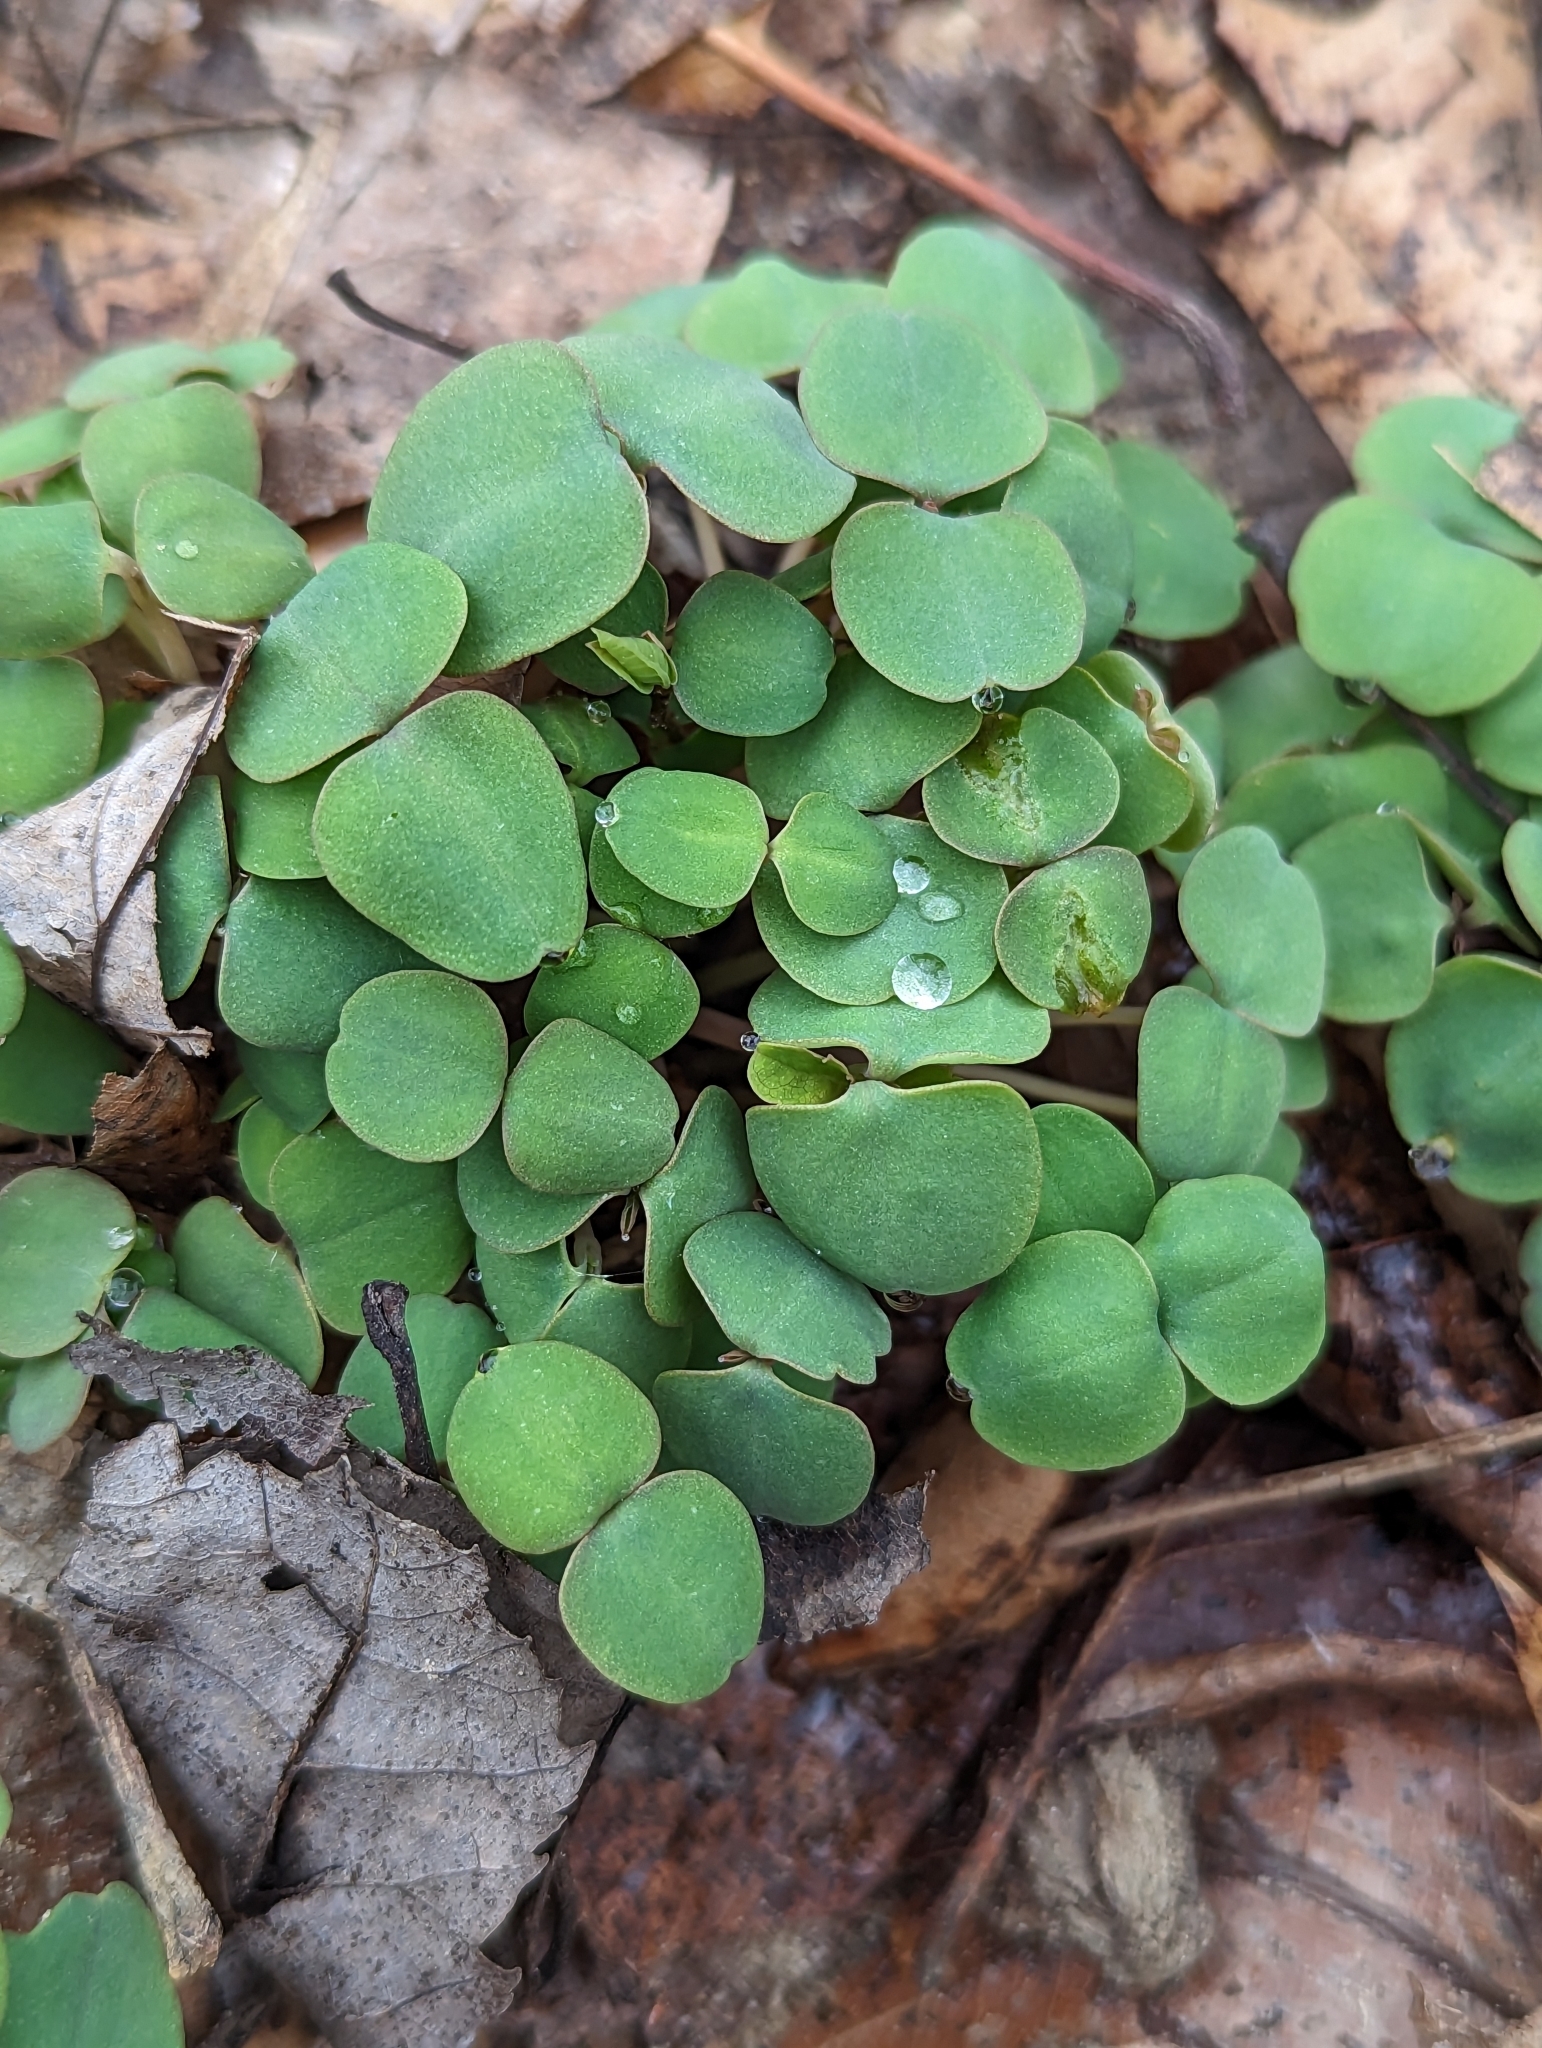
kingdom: Plantae
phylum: Tracheophyta
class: Magnoliopsida
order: Ericales
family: Balsaminaceae
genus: Impatiens
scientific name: Impatiens
